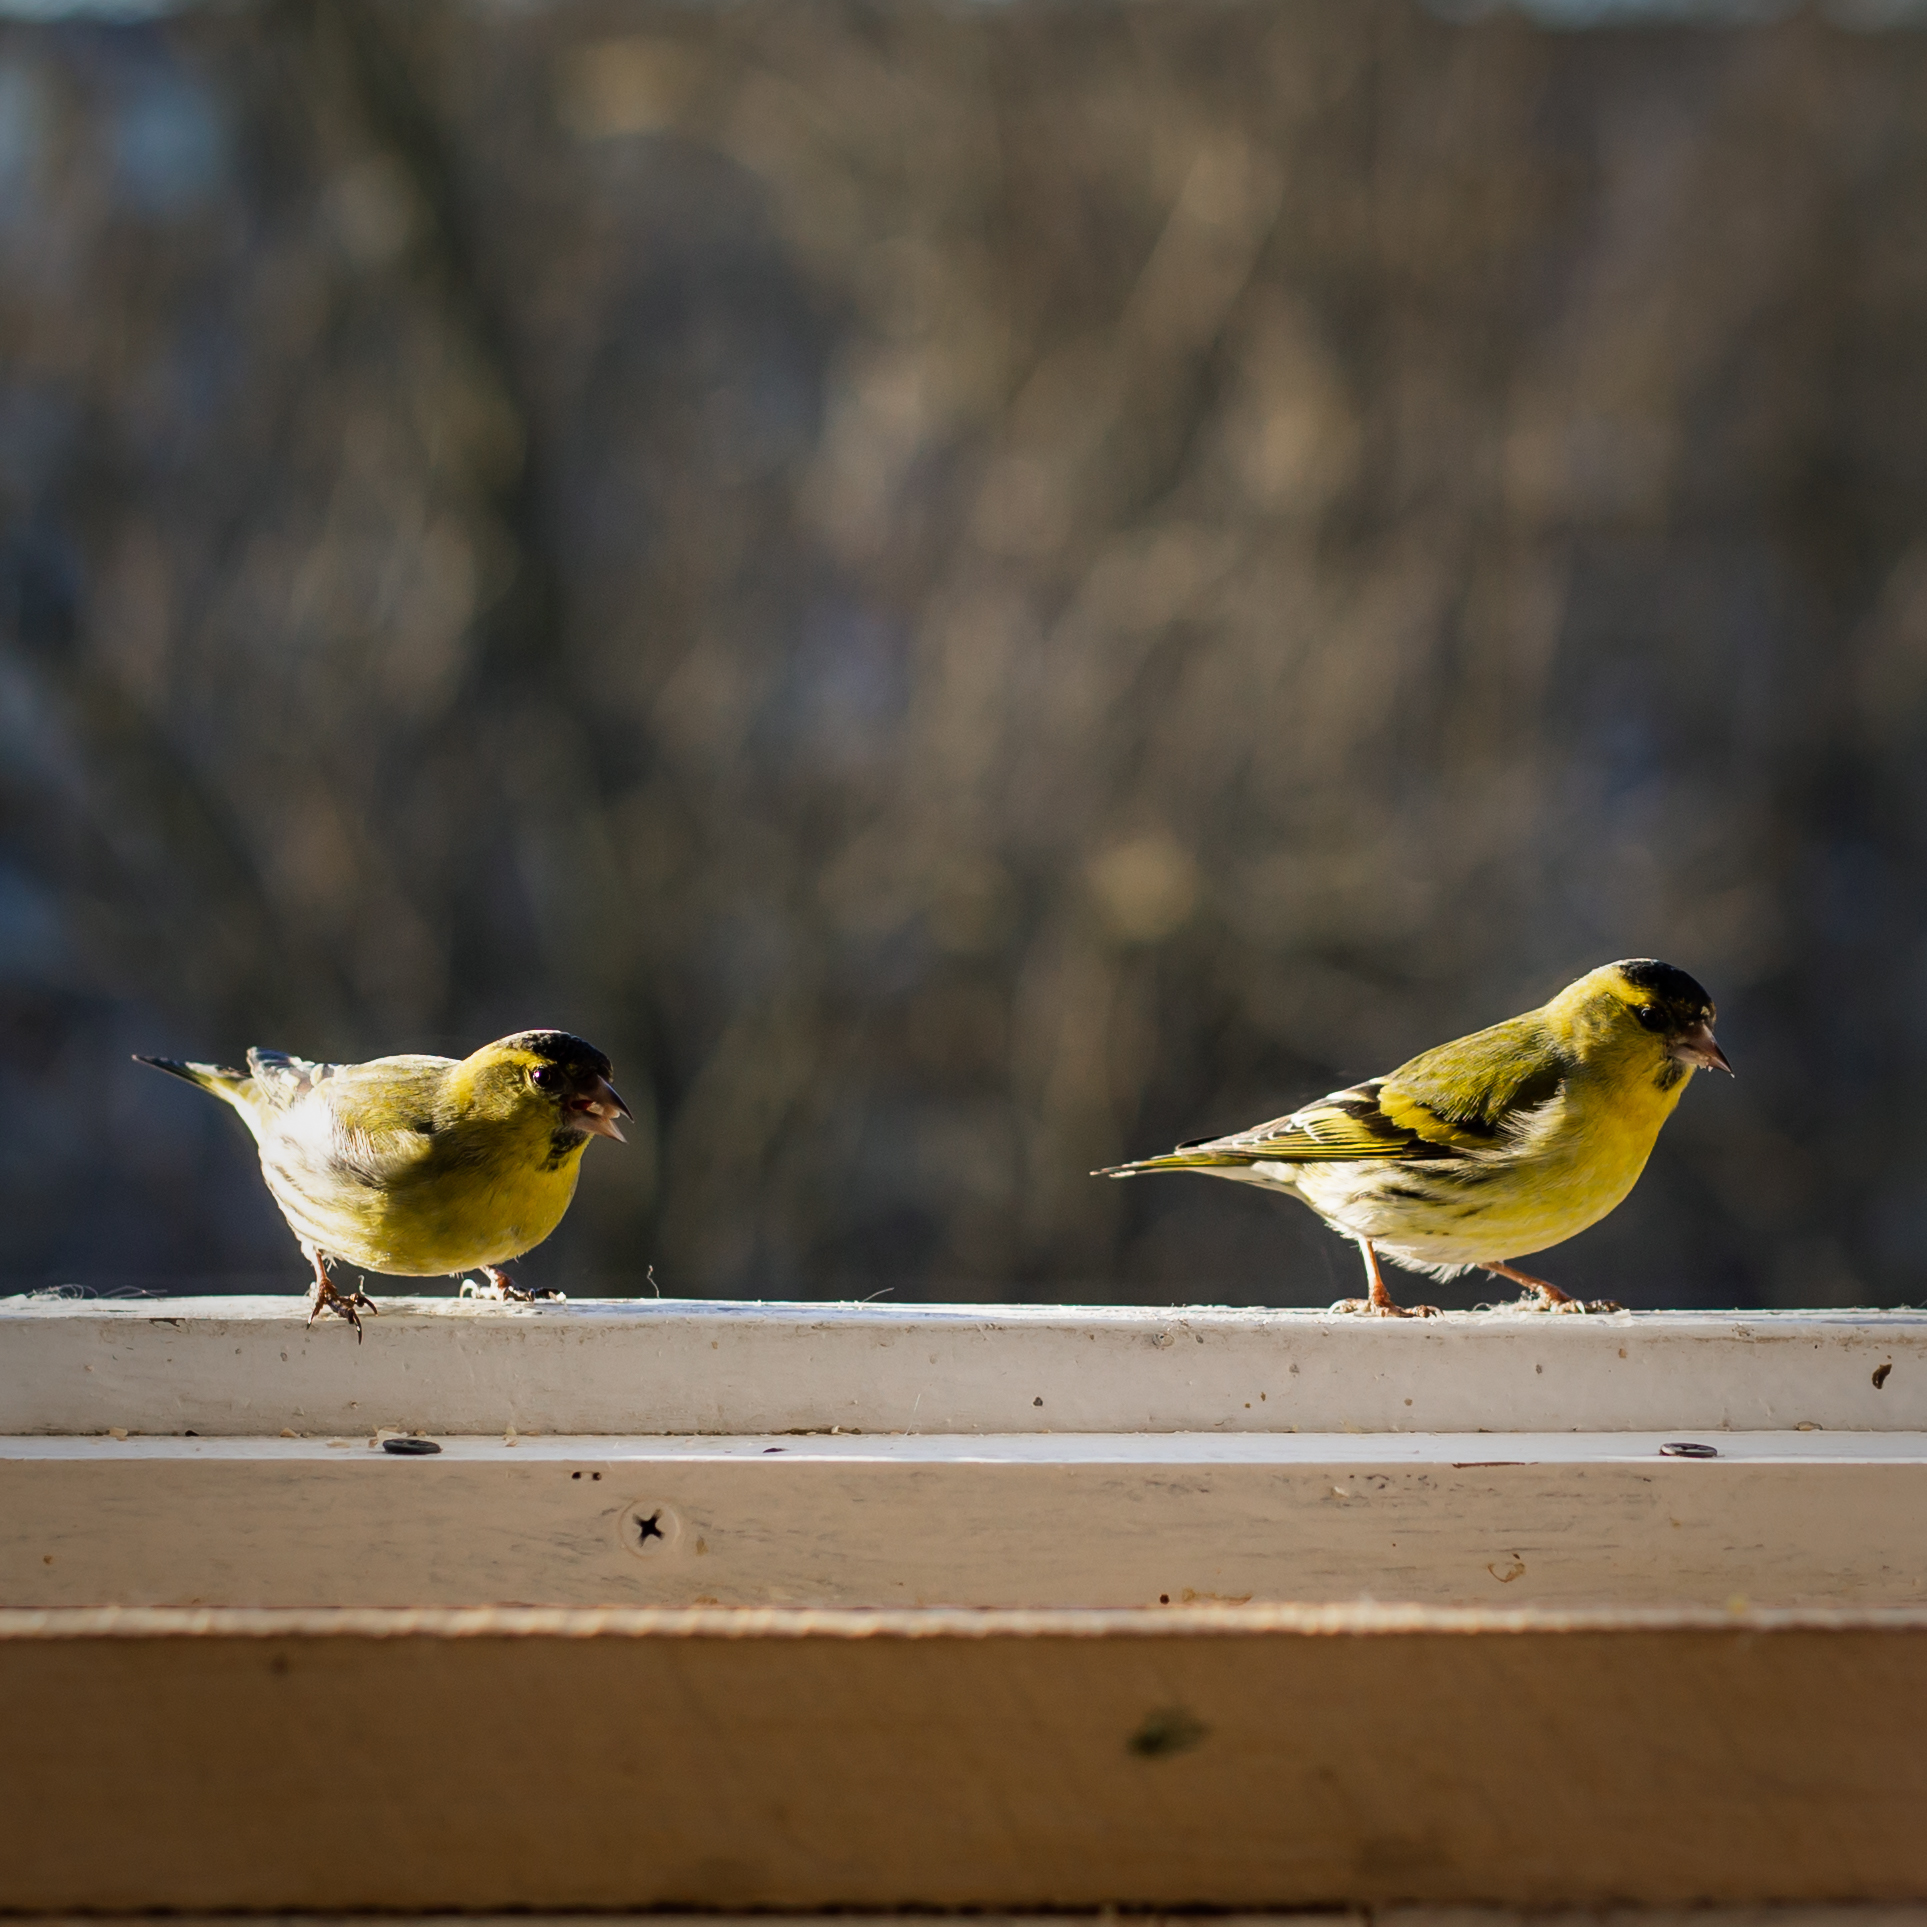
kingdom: Animalia
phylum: Chordata
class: Aves
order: Passeriformes
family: Fringillidae
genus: Spinus
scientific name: Spinus spinus
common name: Eurasian siskin
